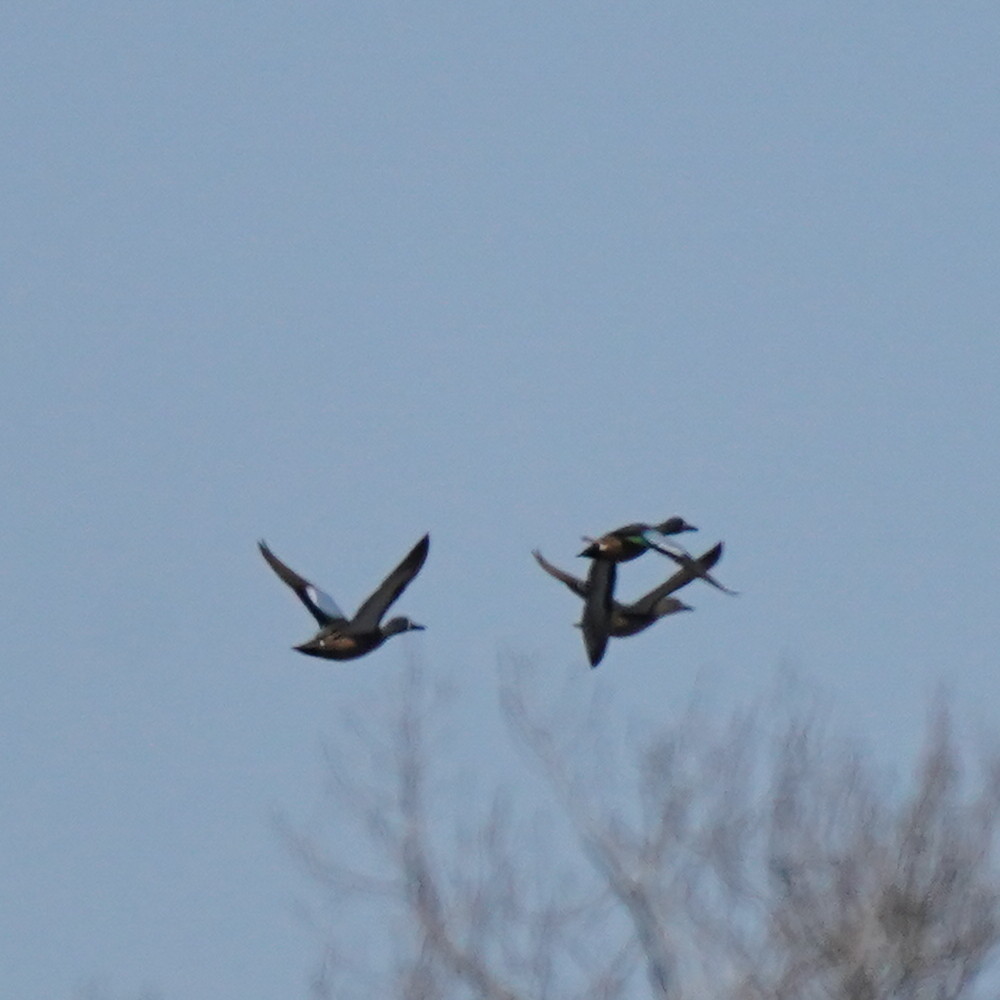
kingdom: Animalia
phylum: Chordata
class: Aves
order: Anseriformes
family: Anatidae
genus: Spatula
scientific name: Spatula discors
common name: Blue-winged teal
